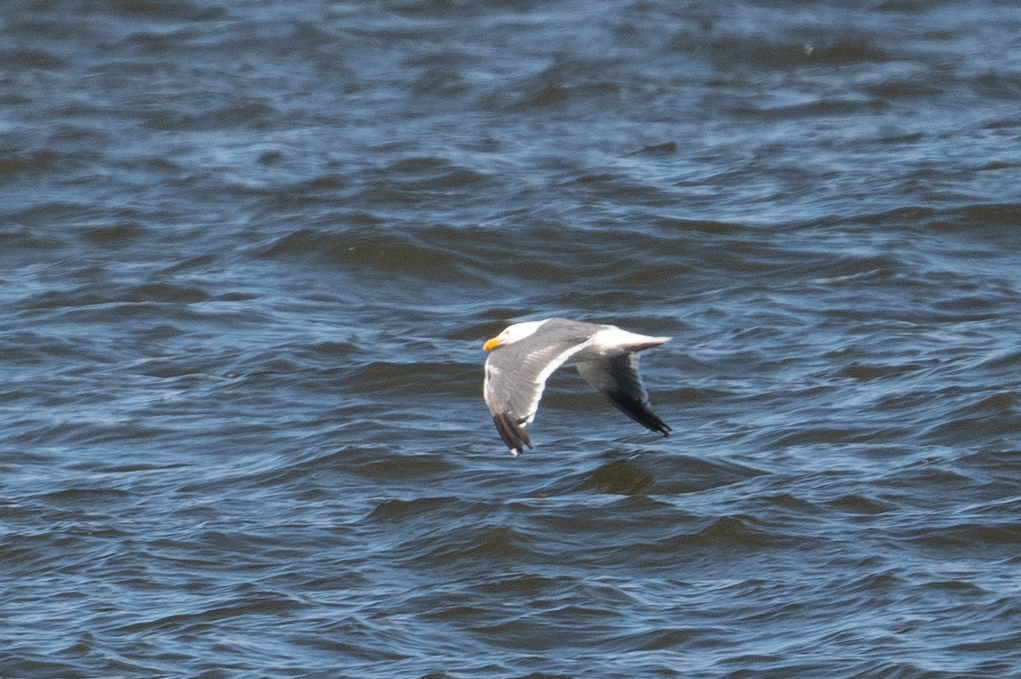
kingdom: Animalia
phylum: Chordata
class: Aves
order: Charadriiformes
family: Laridae
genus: Larus
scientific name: Larus occidentalis
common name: Western gull
